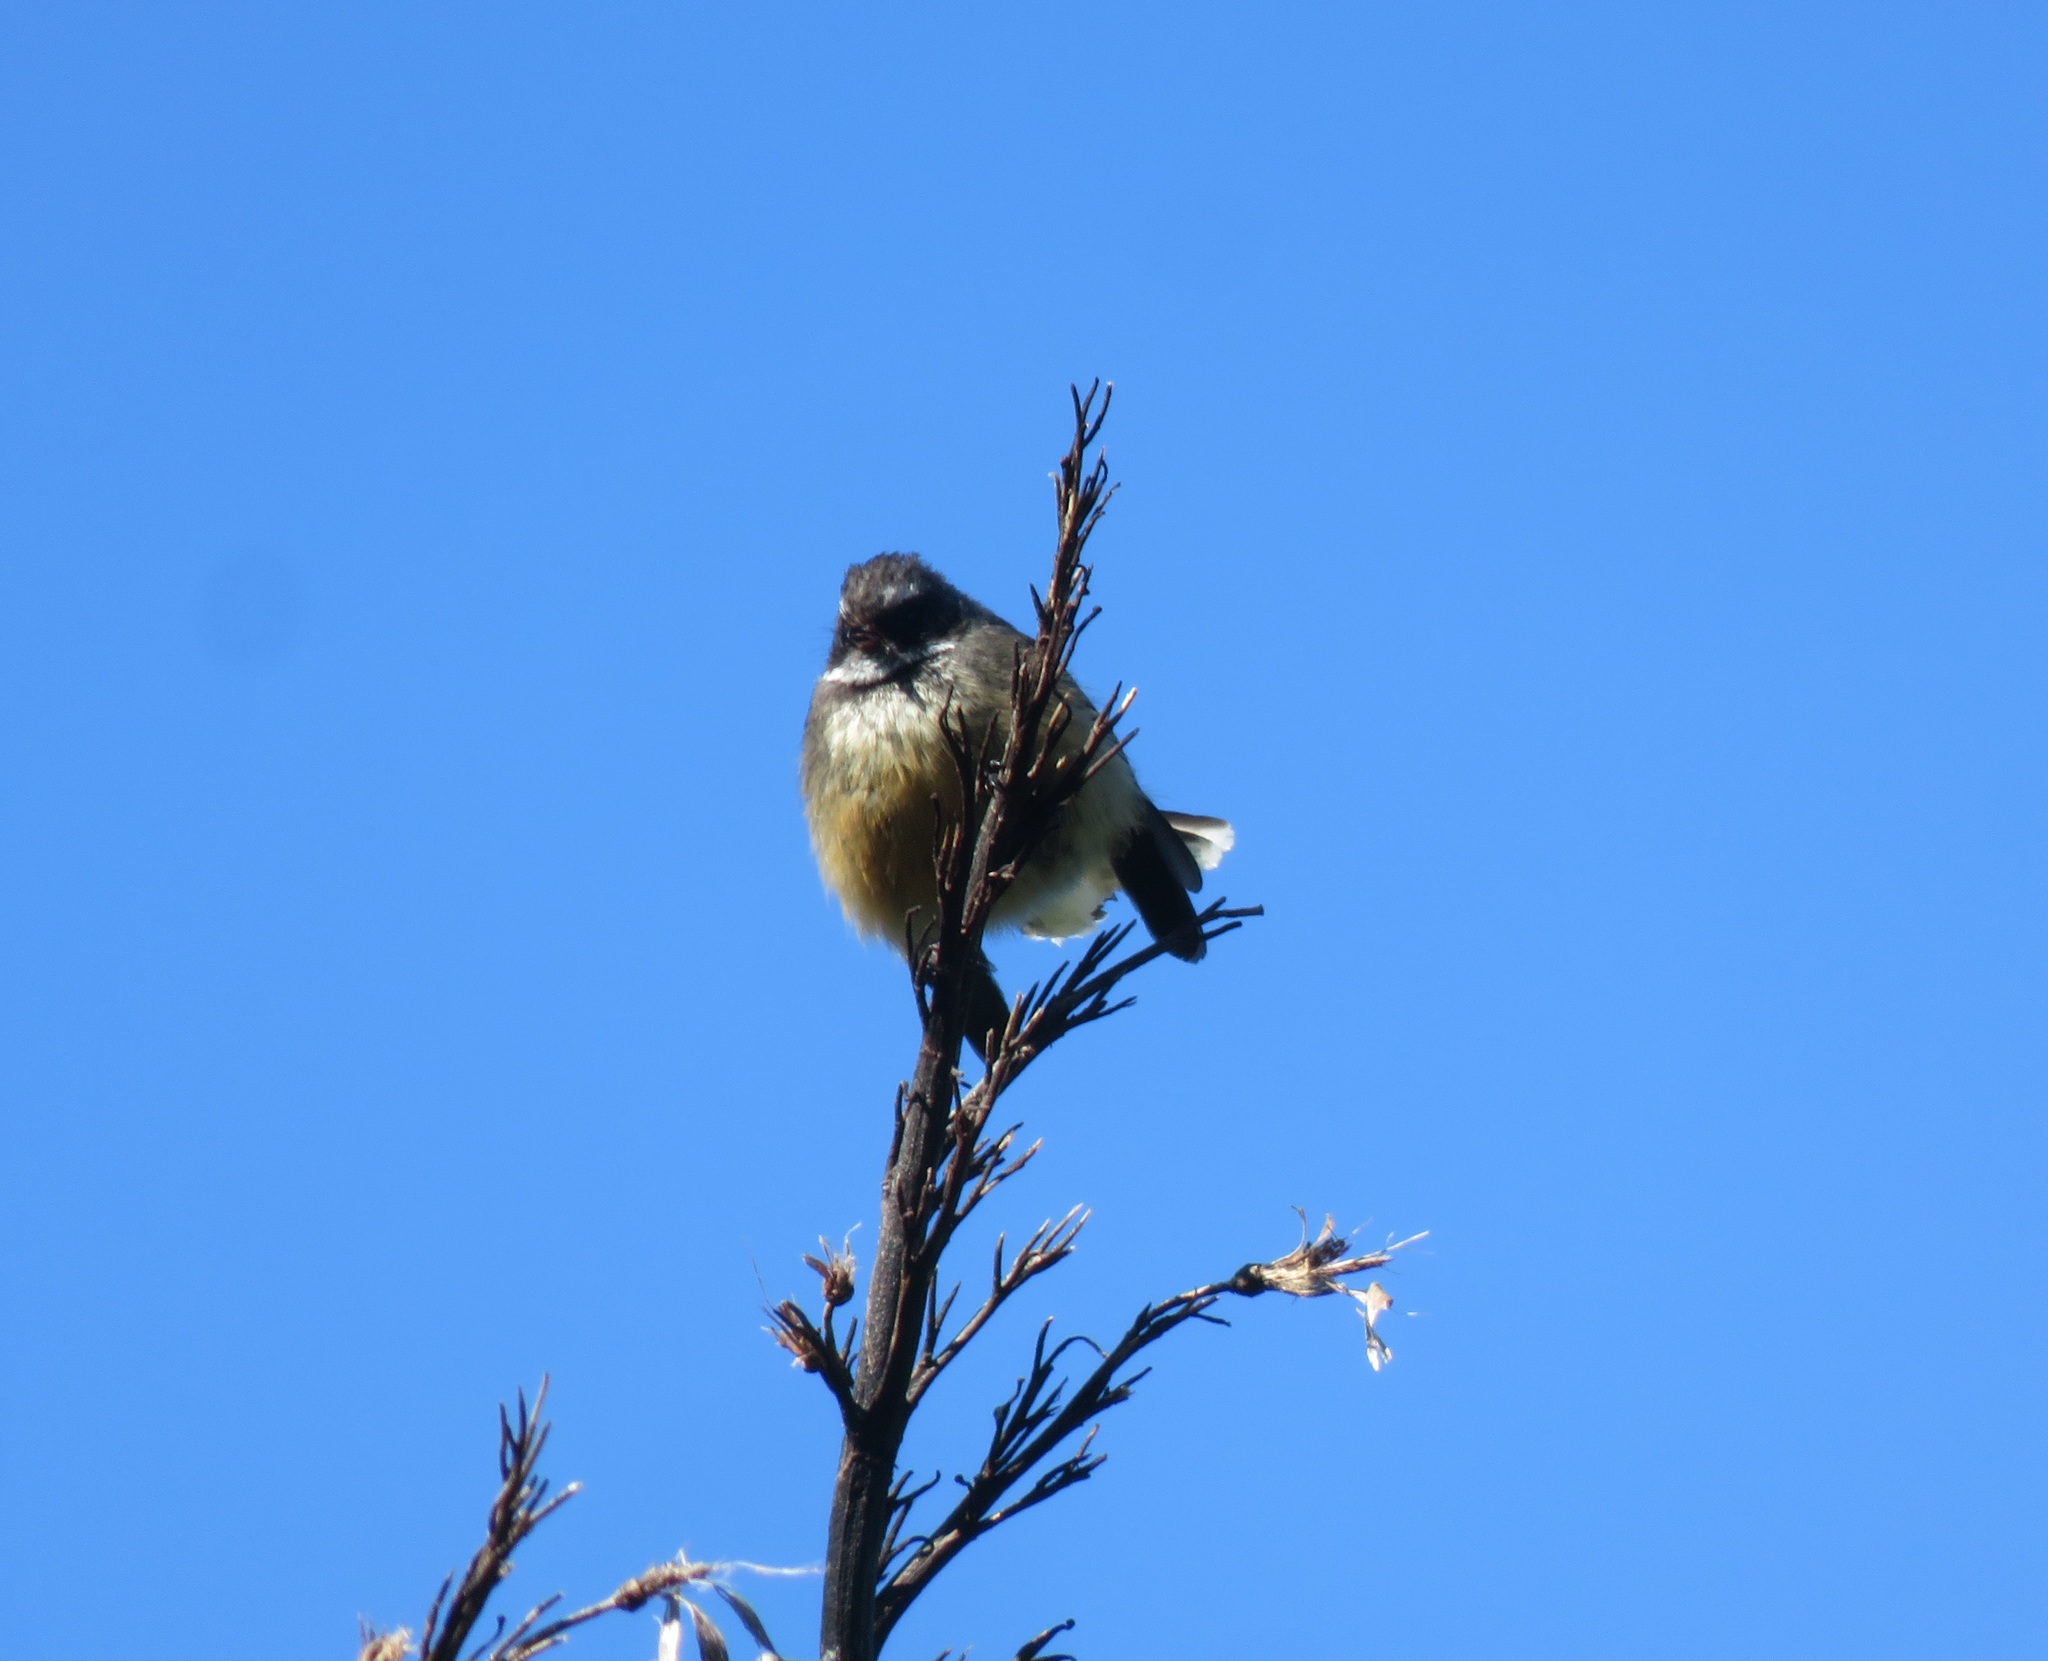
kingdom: Animalia
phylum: Chordata
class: Aves
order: Passeriformes
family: Rhipiduridae
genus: Rhipidura
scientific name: Rhipidura fuliginosa
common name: New zealand fantail
